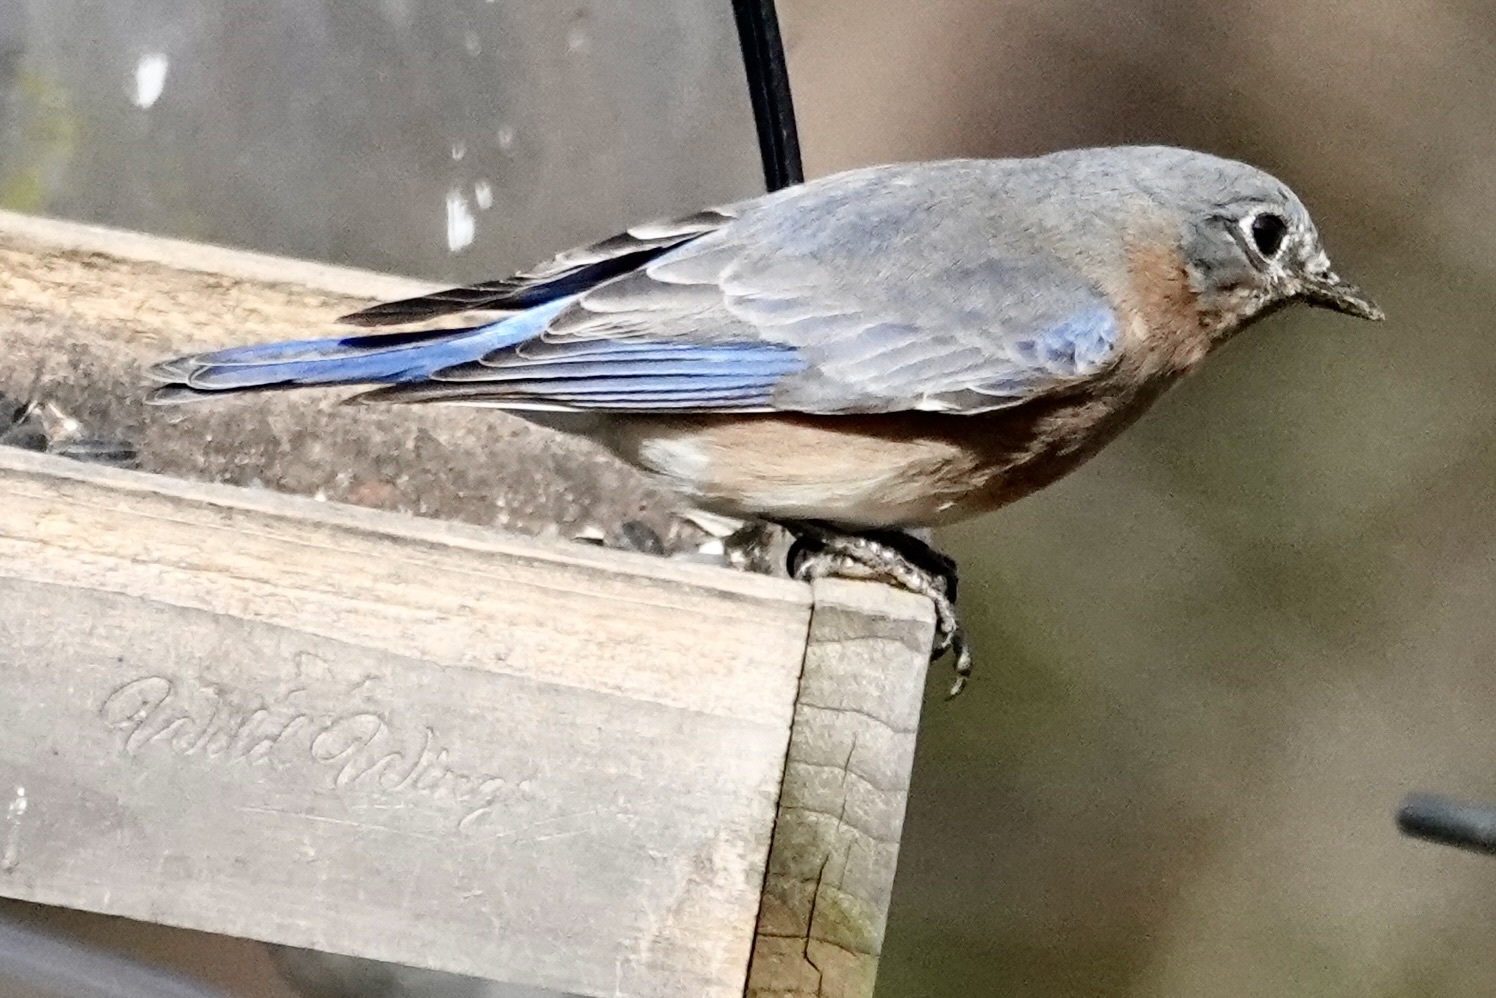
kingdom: Animalia
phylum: Chordata
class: Aves
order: Passeriformes
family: Turdidae
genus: Sialia
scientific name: Sialia sialis
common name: Eastern bluebird
